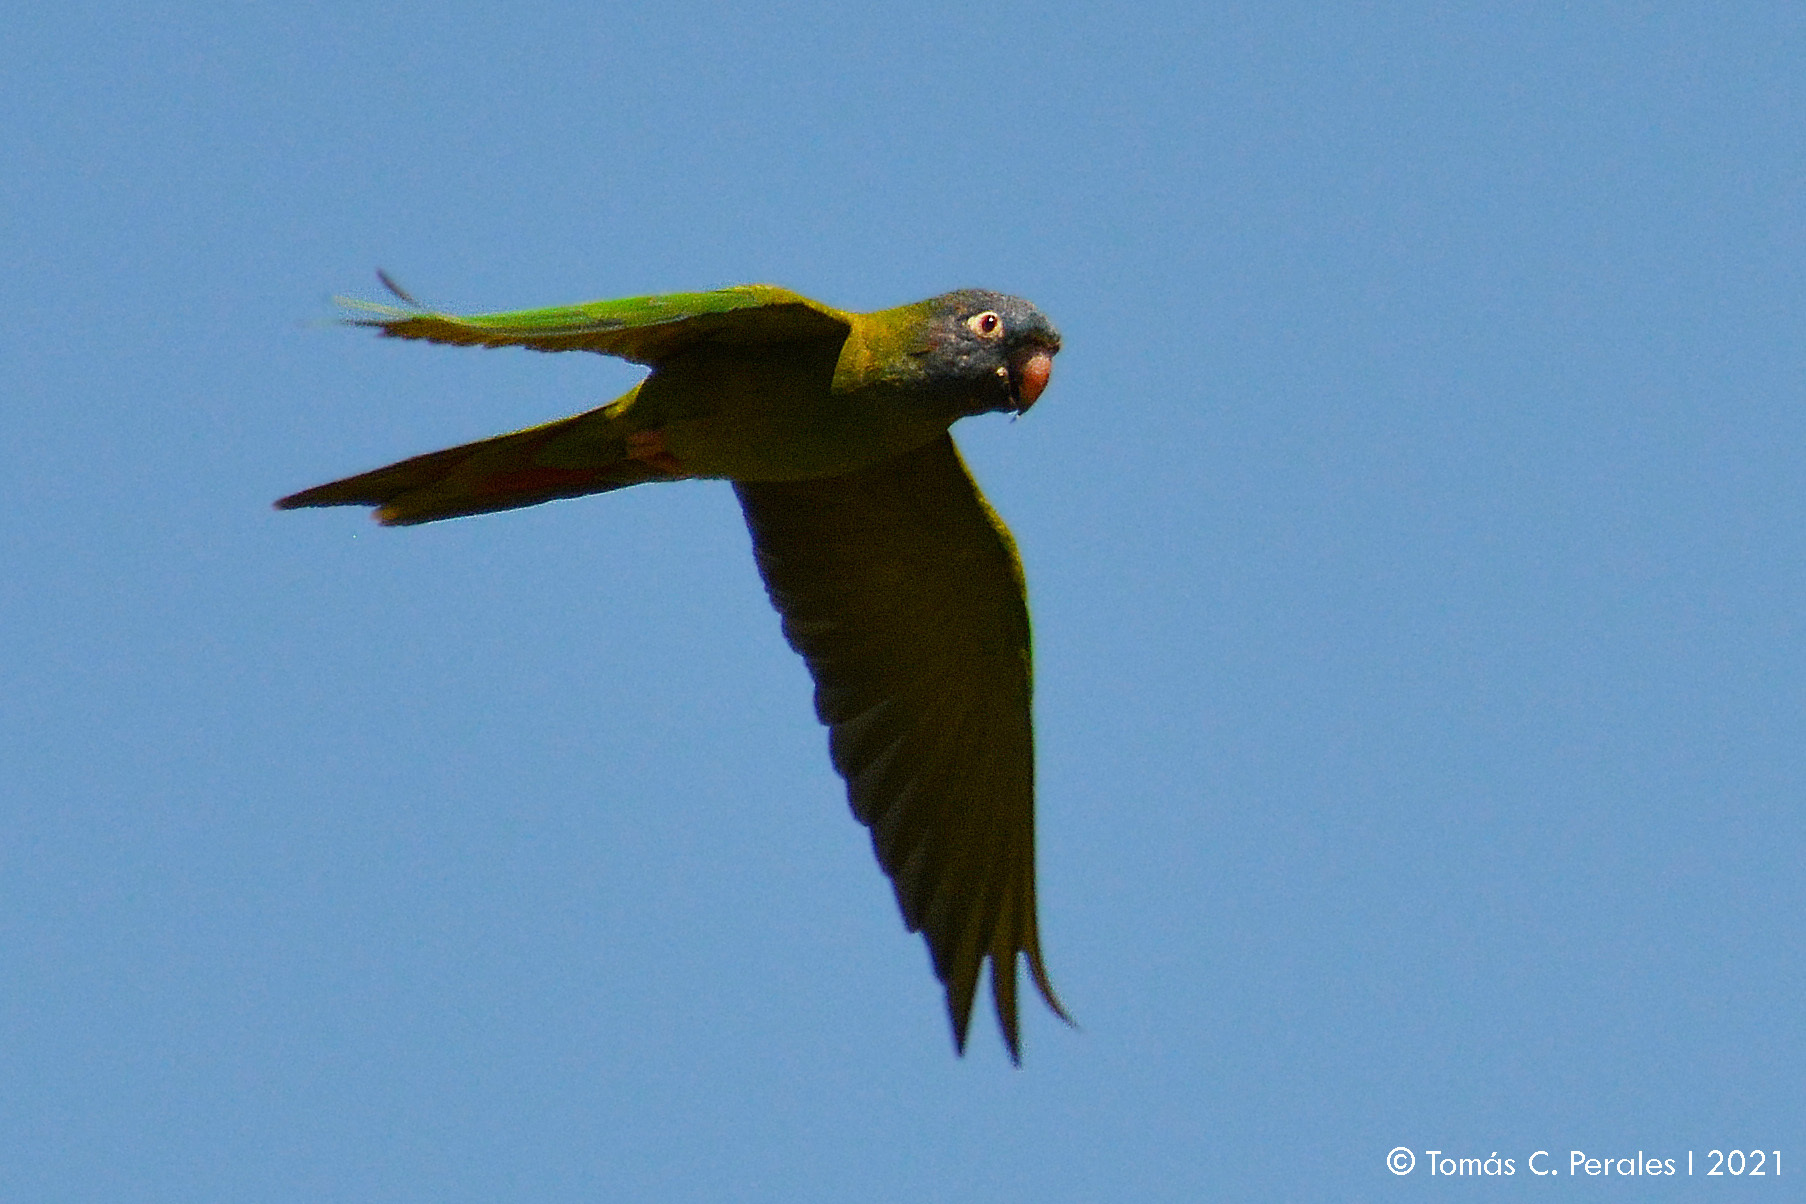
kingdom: Animalia
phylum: Chordata
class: Aves
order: Psittaciformes
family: Psittacidae
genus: Aratinga
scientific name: Aratinga acuticaudata
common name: Blue-crowned parakeet
